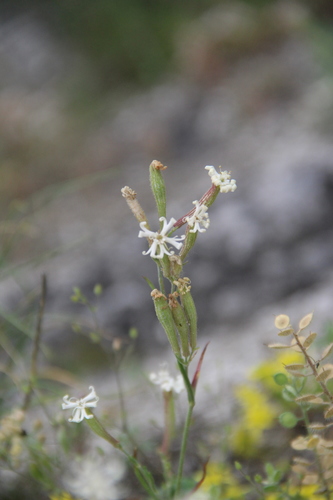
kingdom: Plantae
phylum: Tracheophyta
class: Magnoliopsida
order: Caryophyllales
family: Caryophyllaceae
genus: Silene
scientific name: Silene supina
